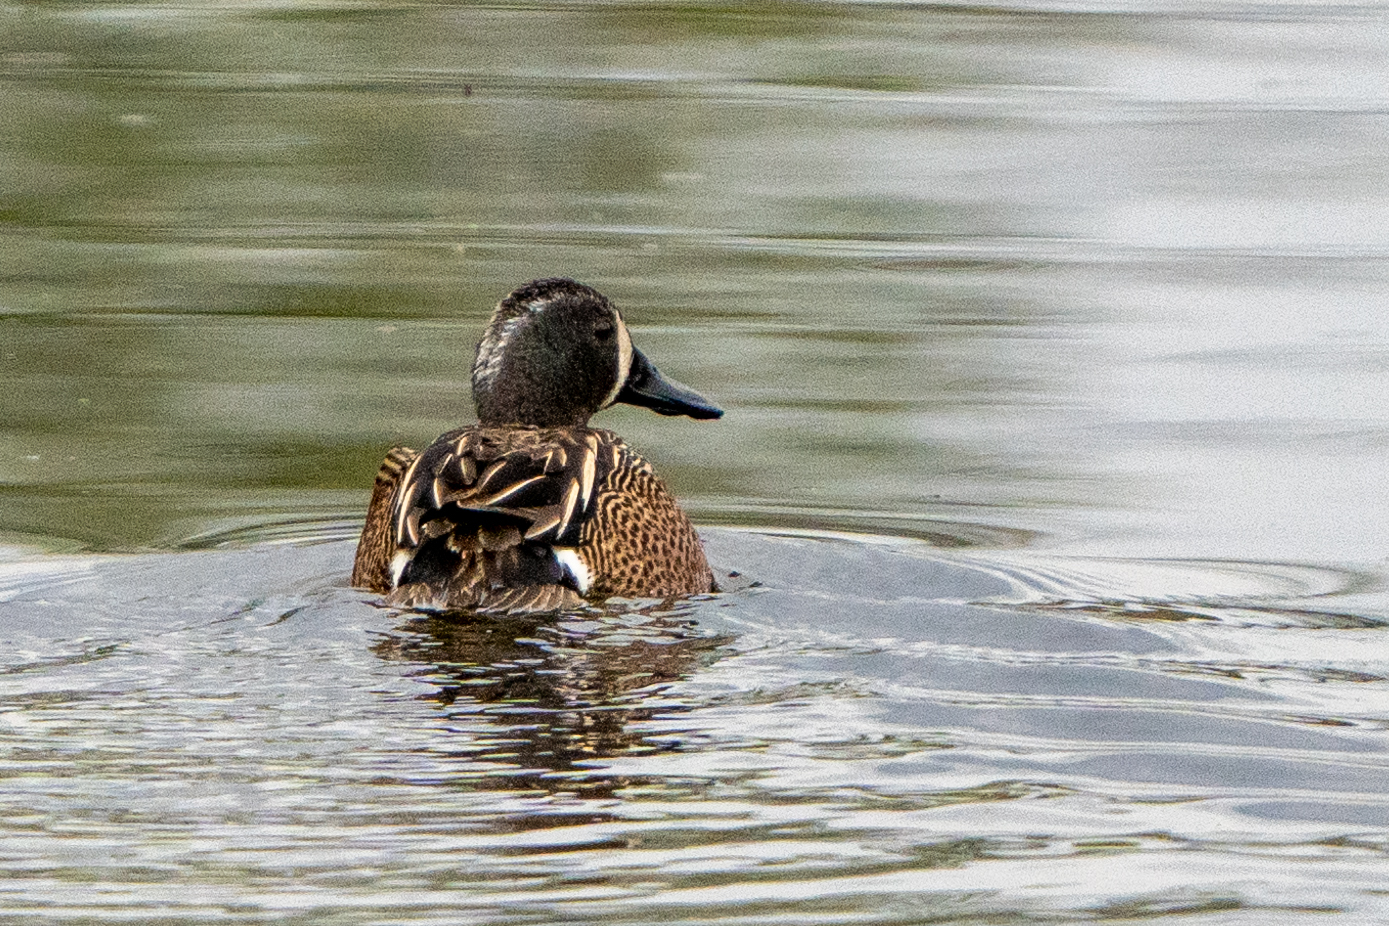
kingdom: Animalia
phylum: Chordata
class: Aves
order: Anseriformes
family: Anatidae
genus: Spatula
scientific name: Spatula discors
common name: Blue-winged teal
